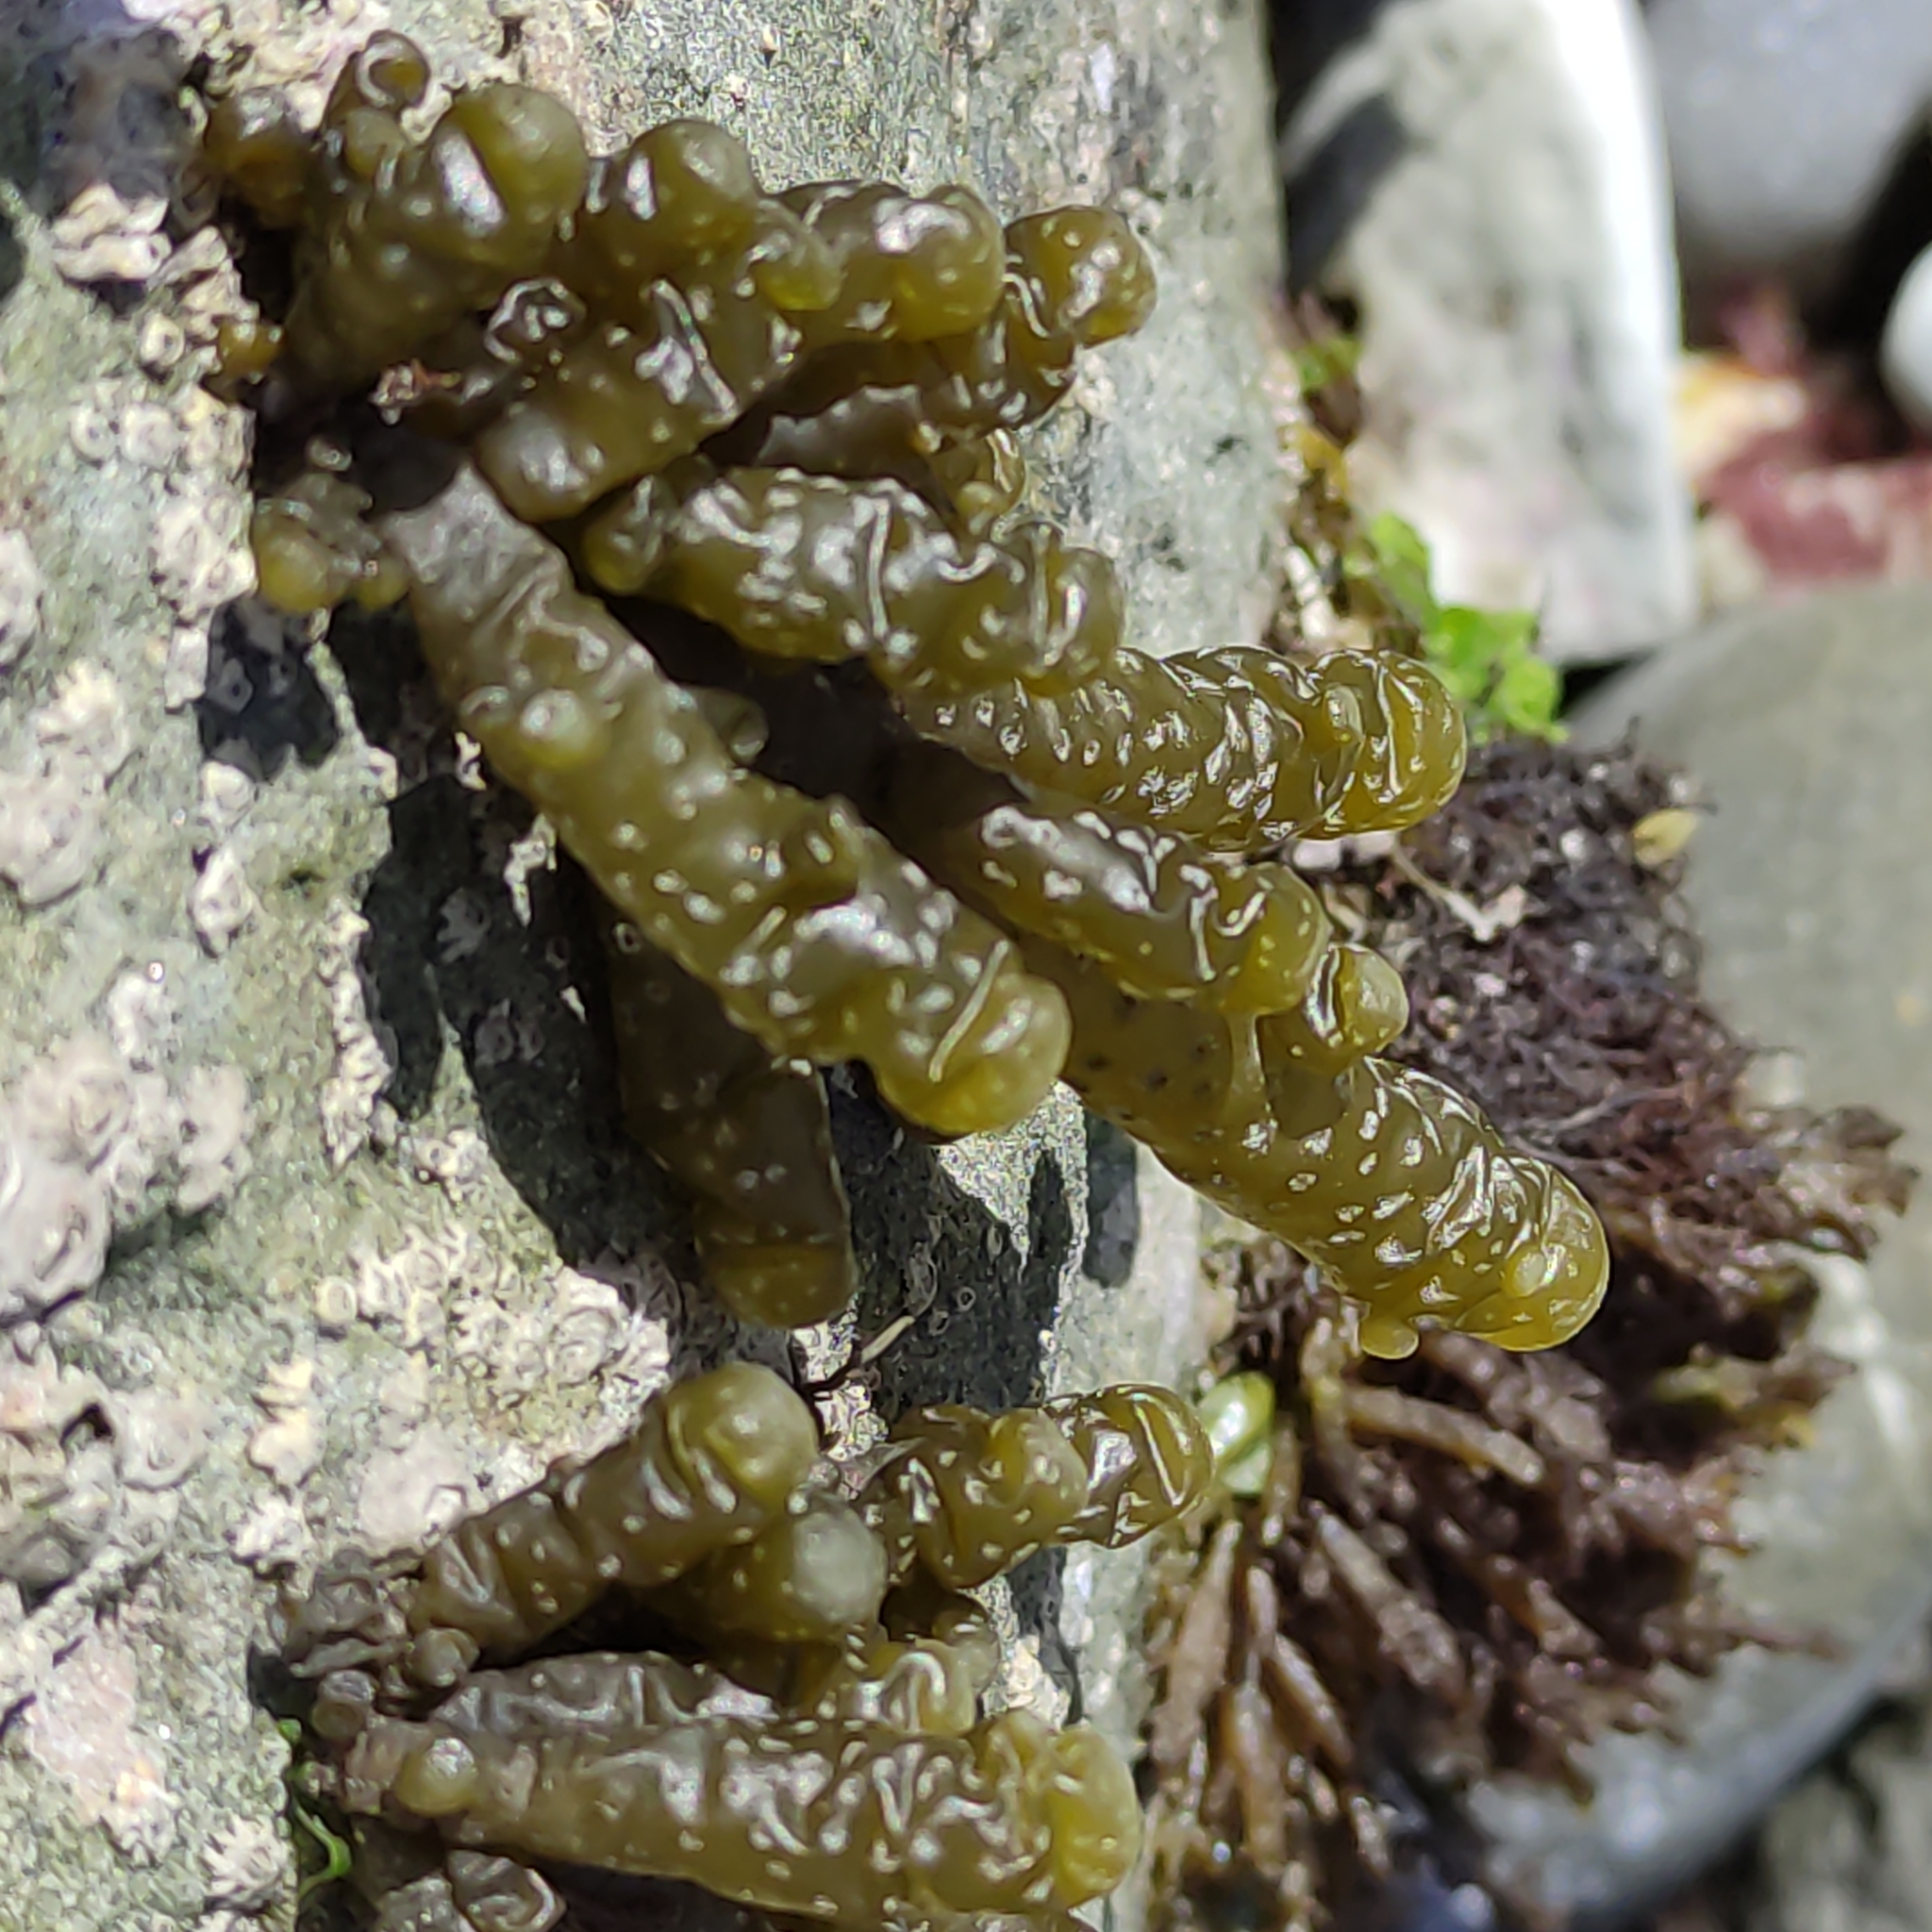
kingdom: Chromista
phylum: Ochrophyta
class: Phaeophyceae
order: Scytothamnales
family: Splachnidiaceae
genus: Splachnidium
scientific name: Splachnidium rugosum
